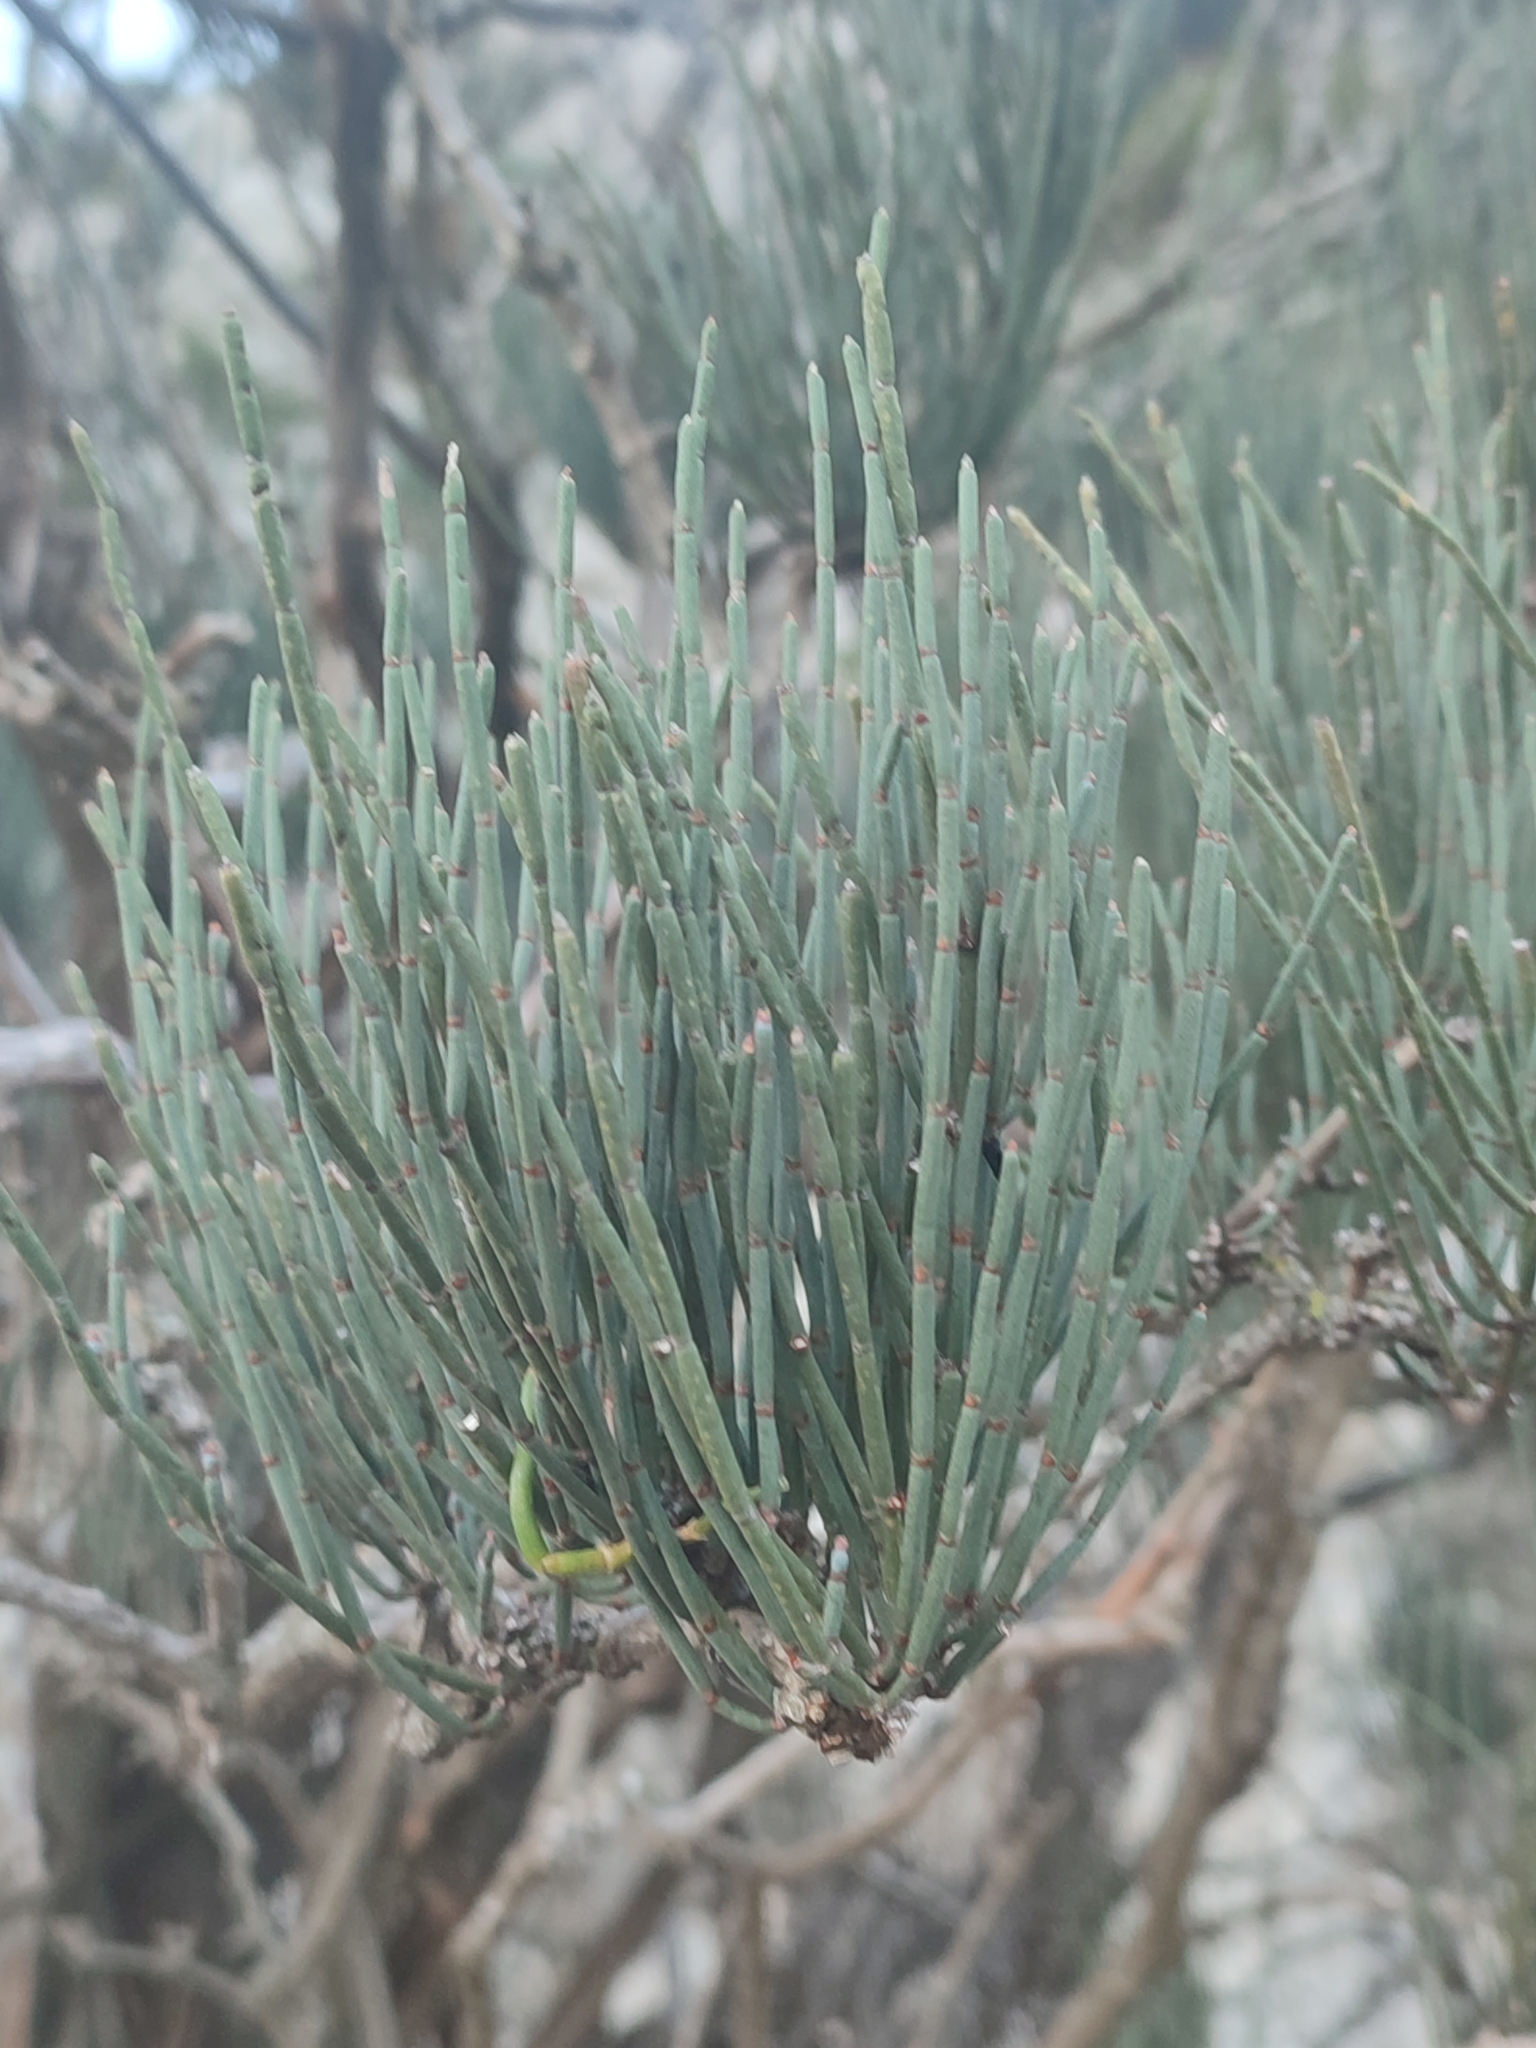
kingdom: Plantae
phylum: Tracheophyta
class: Gnetopsida
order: Ephedrales
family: Ephedraceae
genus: Ephedra
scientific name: Ephedra fragilis
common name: Joint pine
